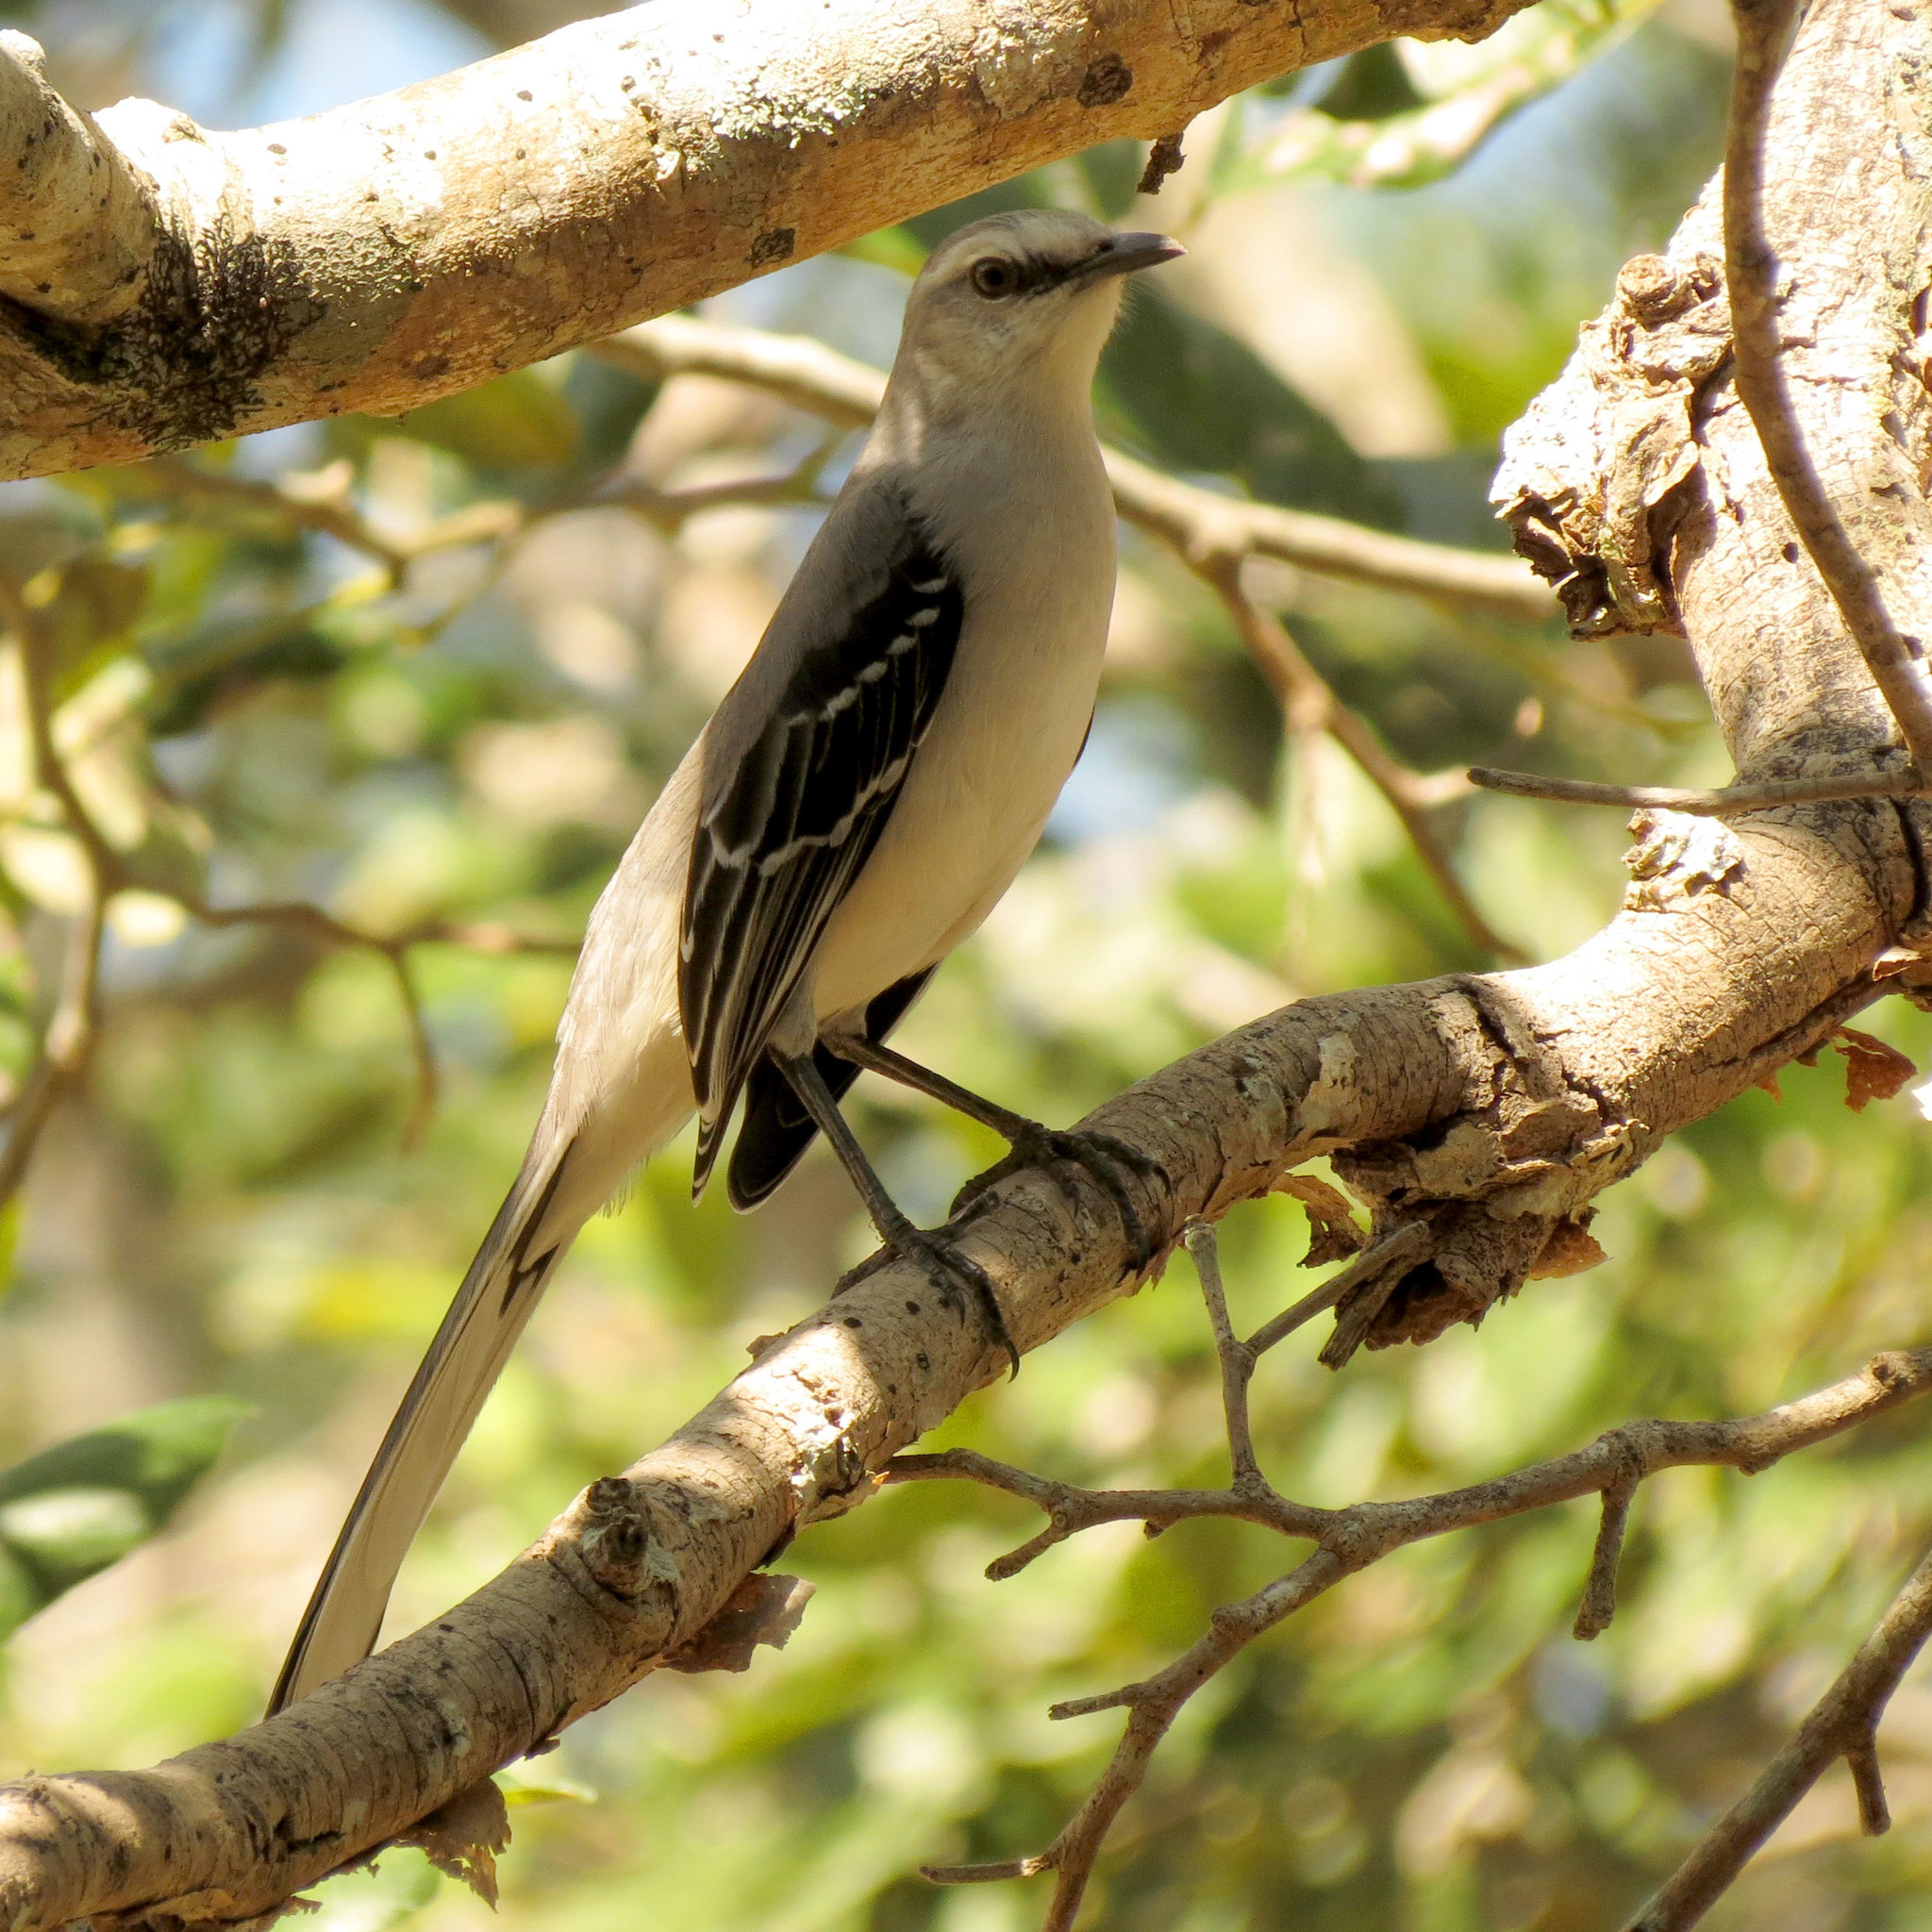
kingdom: Animalia
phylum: Chordata
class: Aves
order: Passeriformes
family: Mimidae
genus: Mimus
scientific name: Mimus gilvus
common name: Tropical mockingbird
